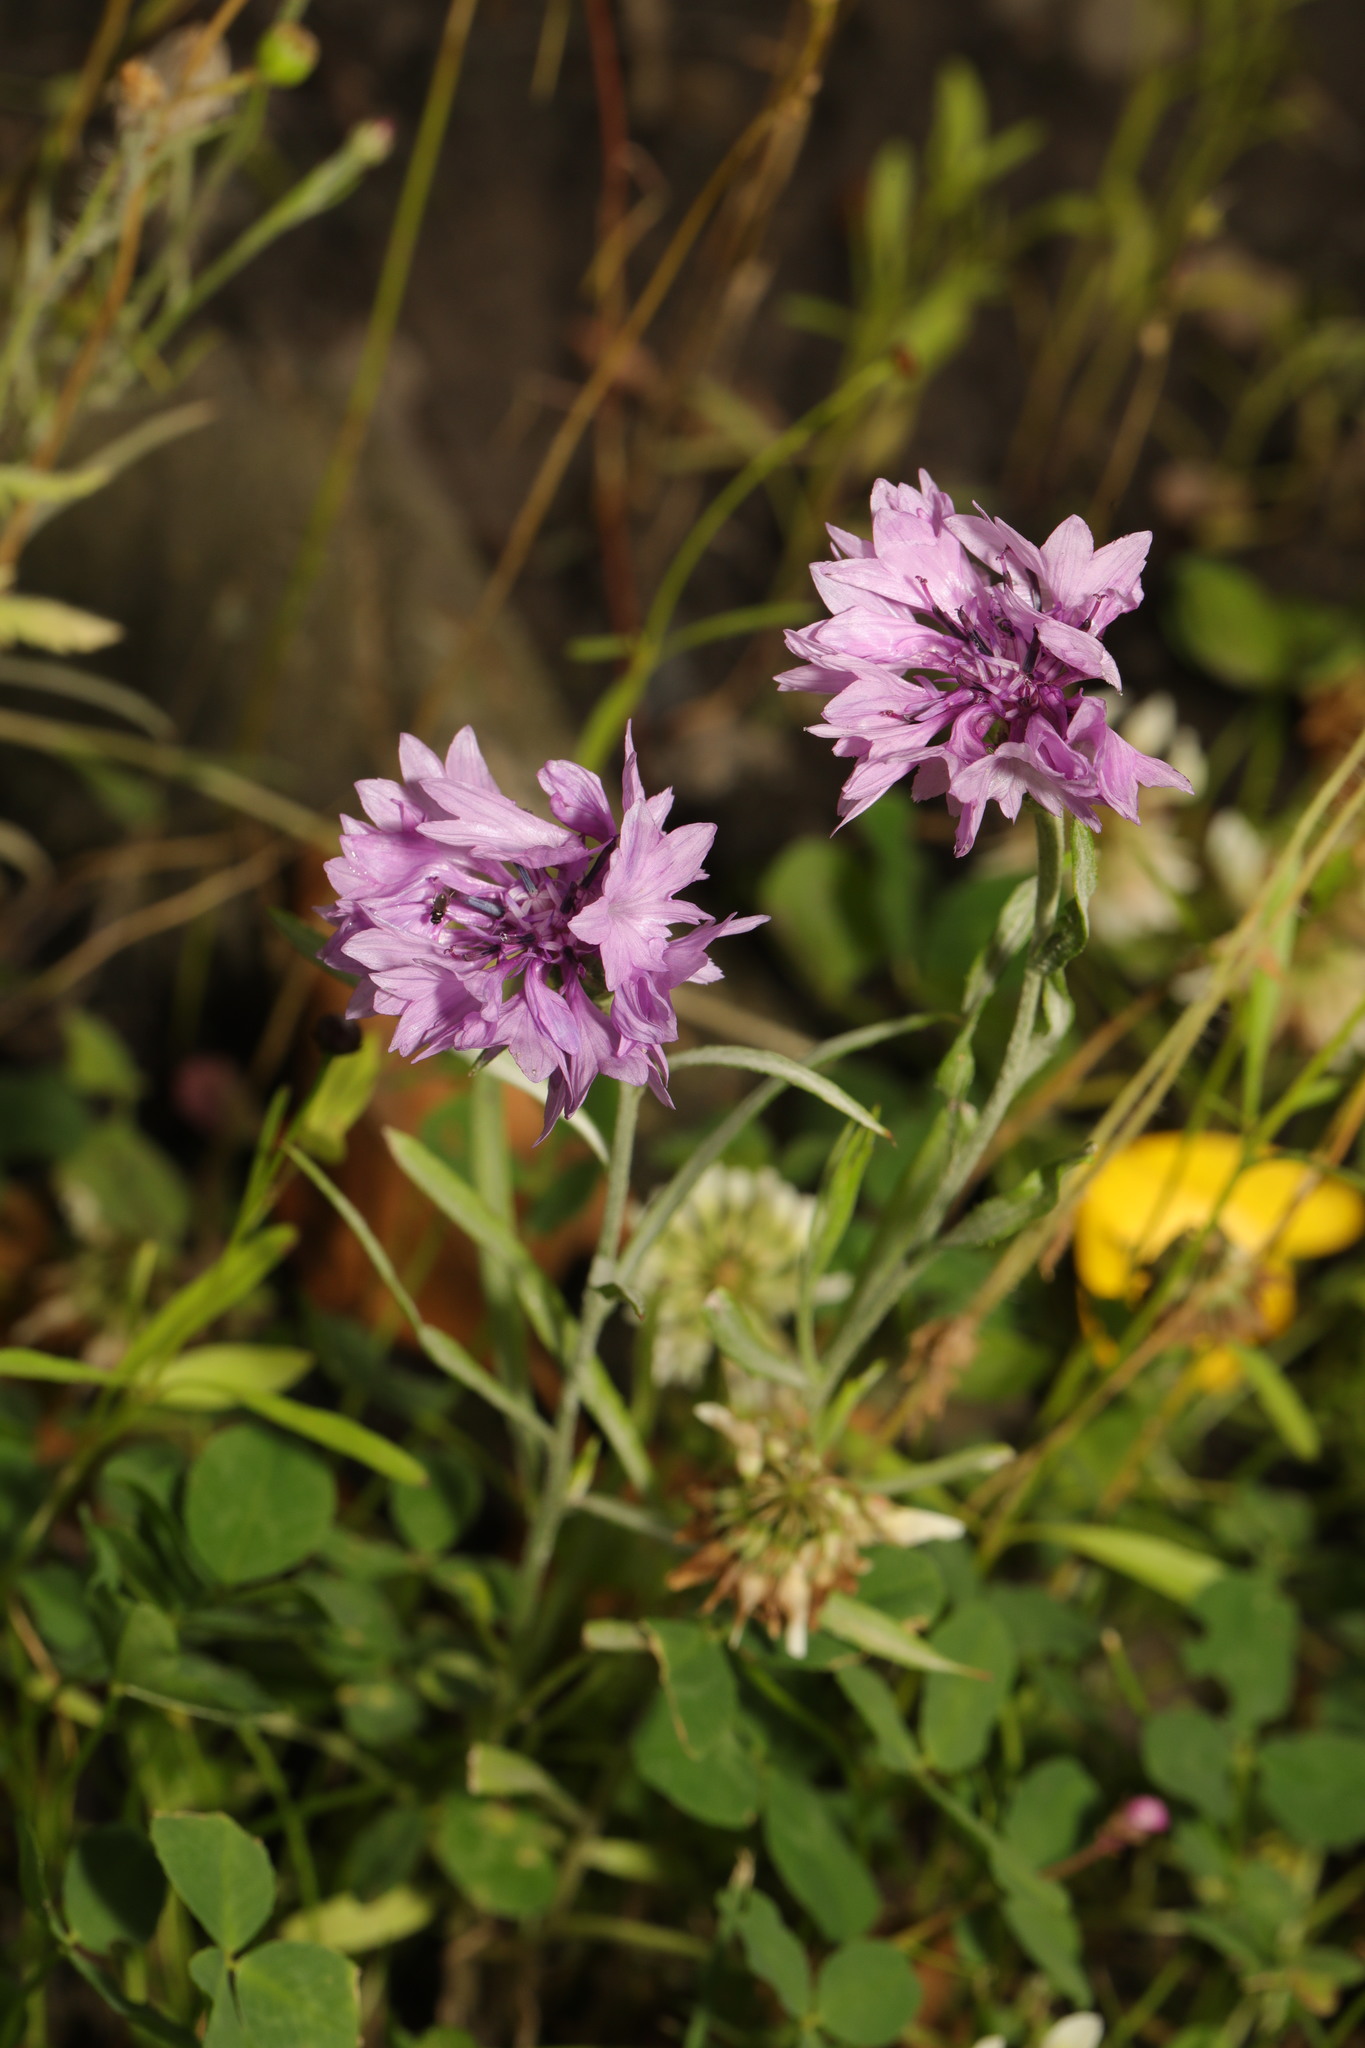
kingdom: Plantae
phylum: Tracheophyta
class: Magnoliopsida
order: Asterales
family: Asteraceae
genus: Centaurea
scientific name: Centaurea cyanus
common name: Cornflower
